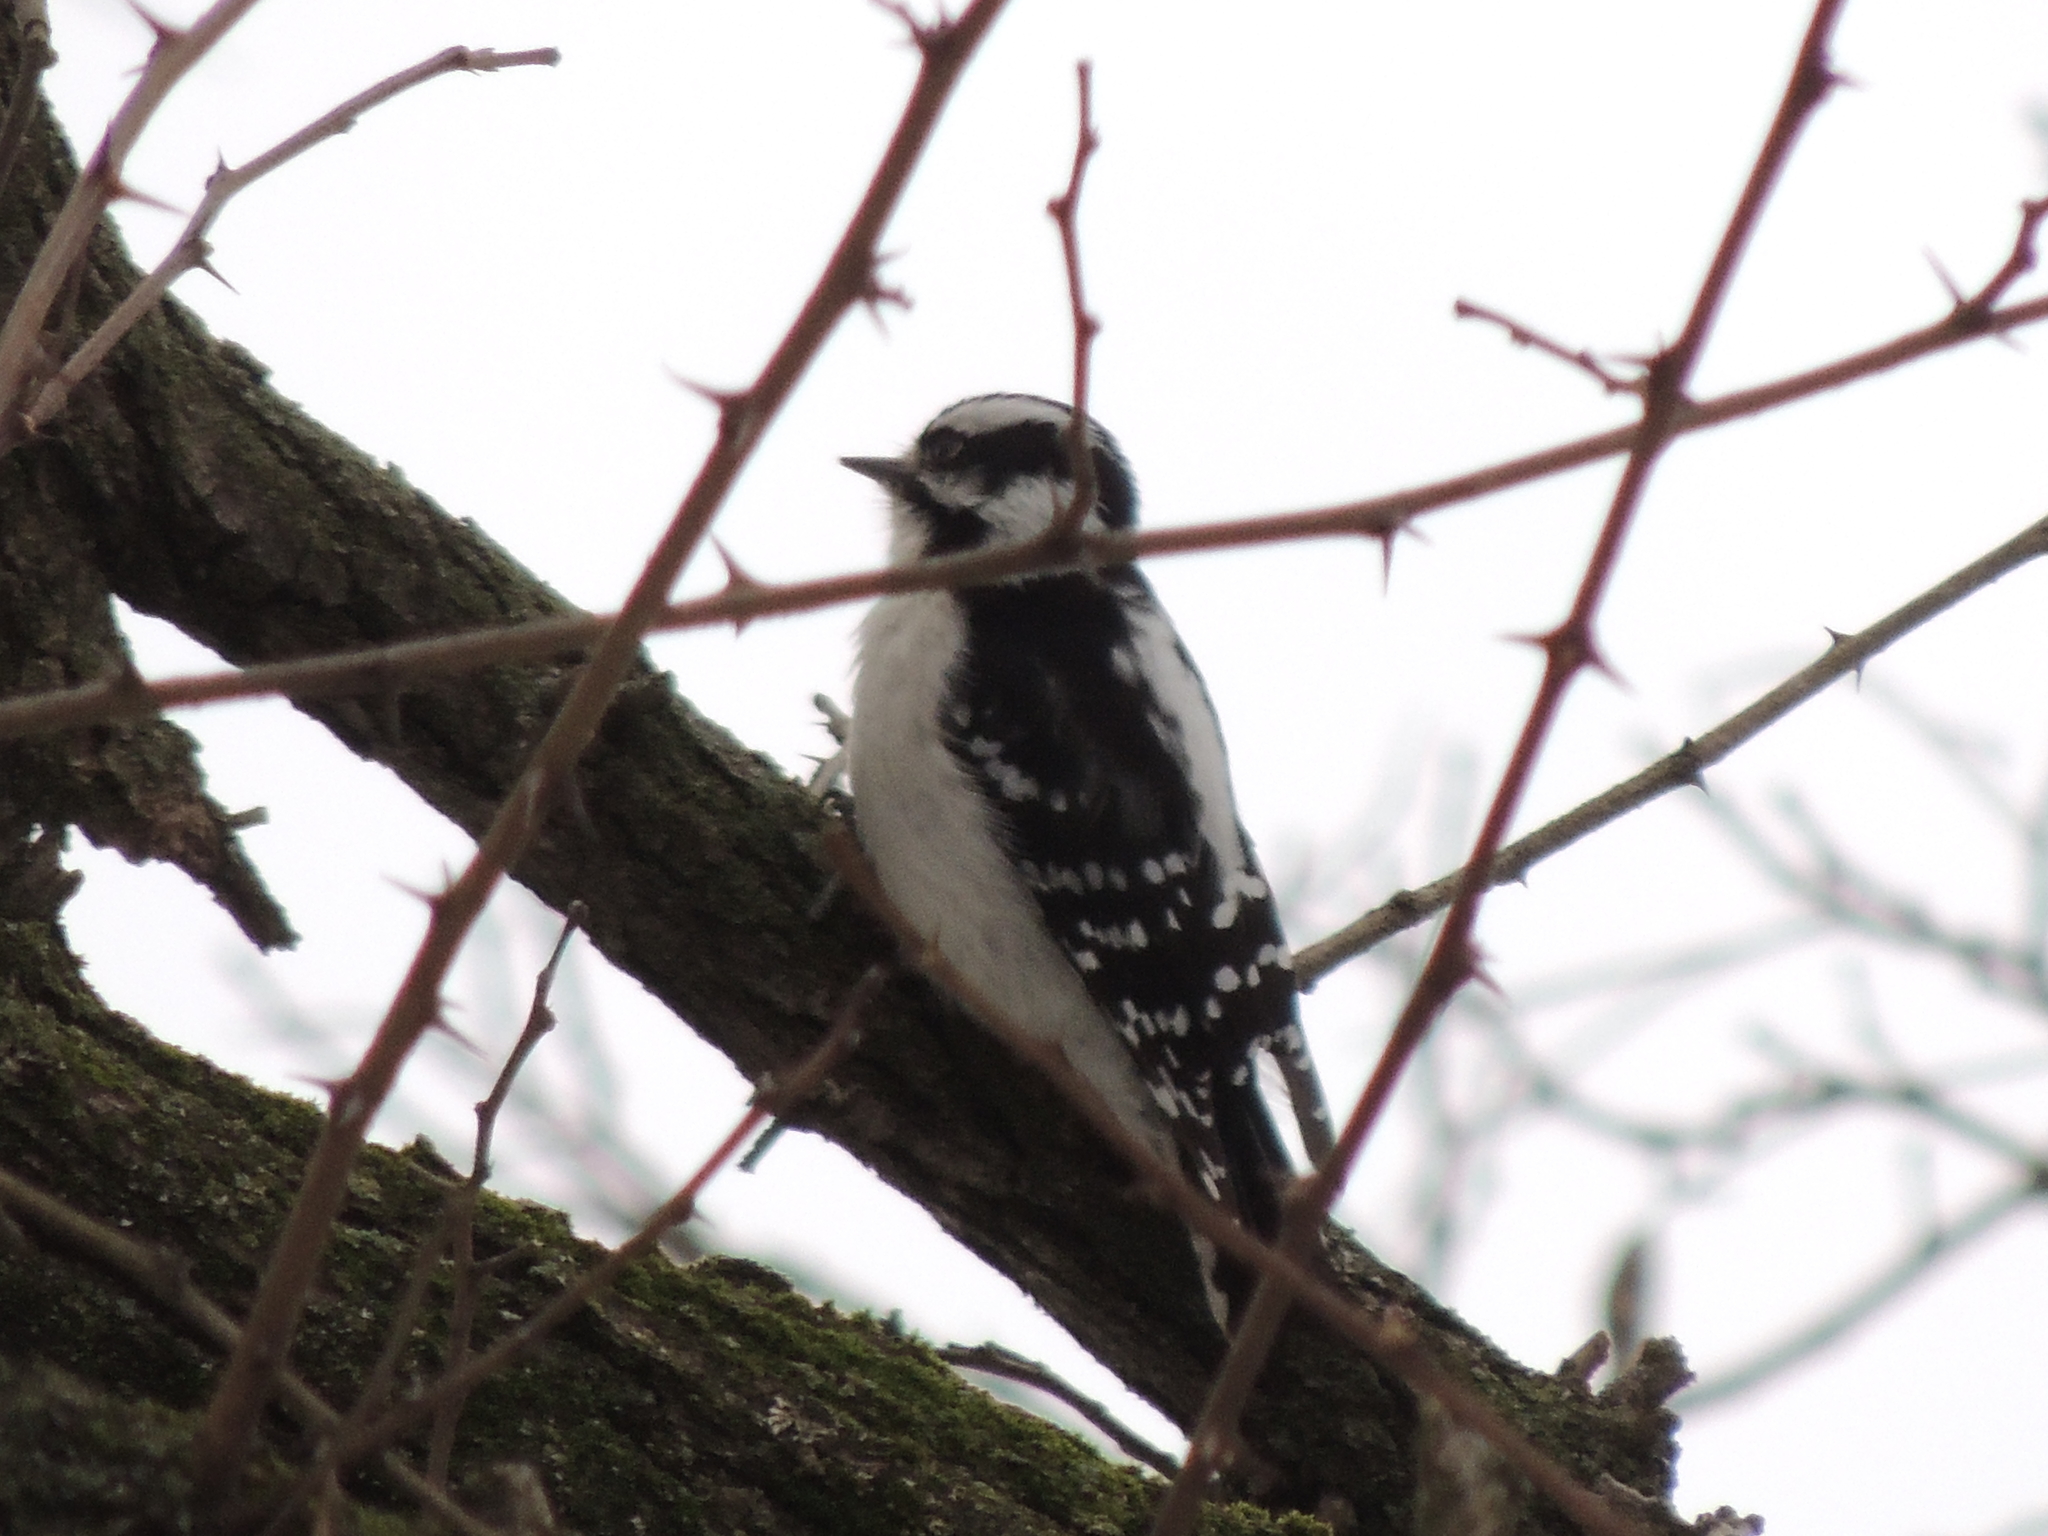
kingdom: Animalia
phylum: Chordata
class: Aves
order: Piciformes
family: Picidae
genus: Dryobates
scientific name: Dryobates pubescens
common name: Downy woodpecker
